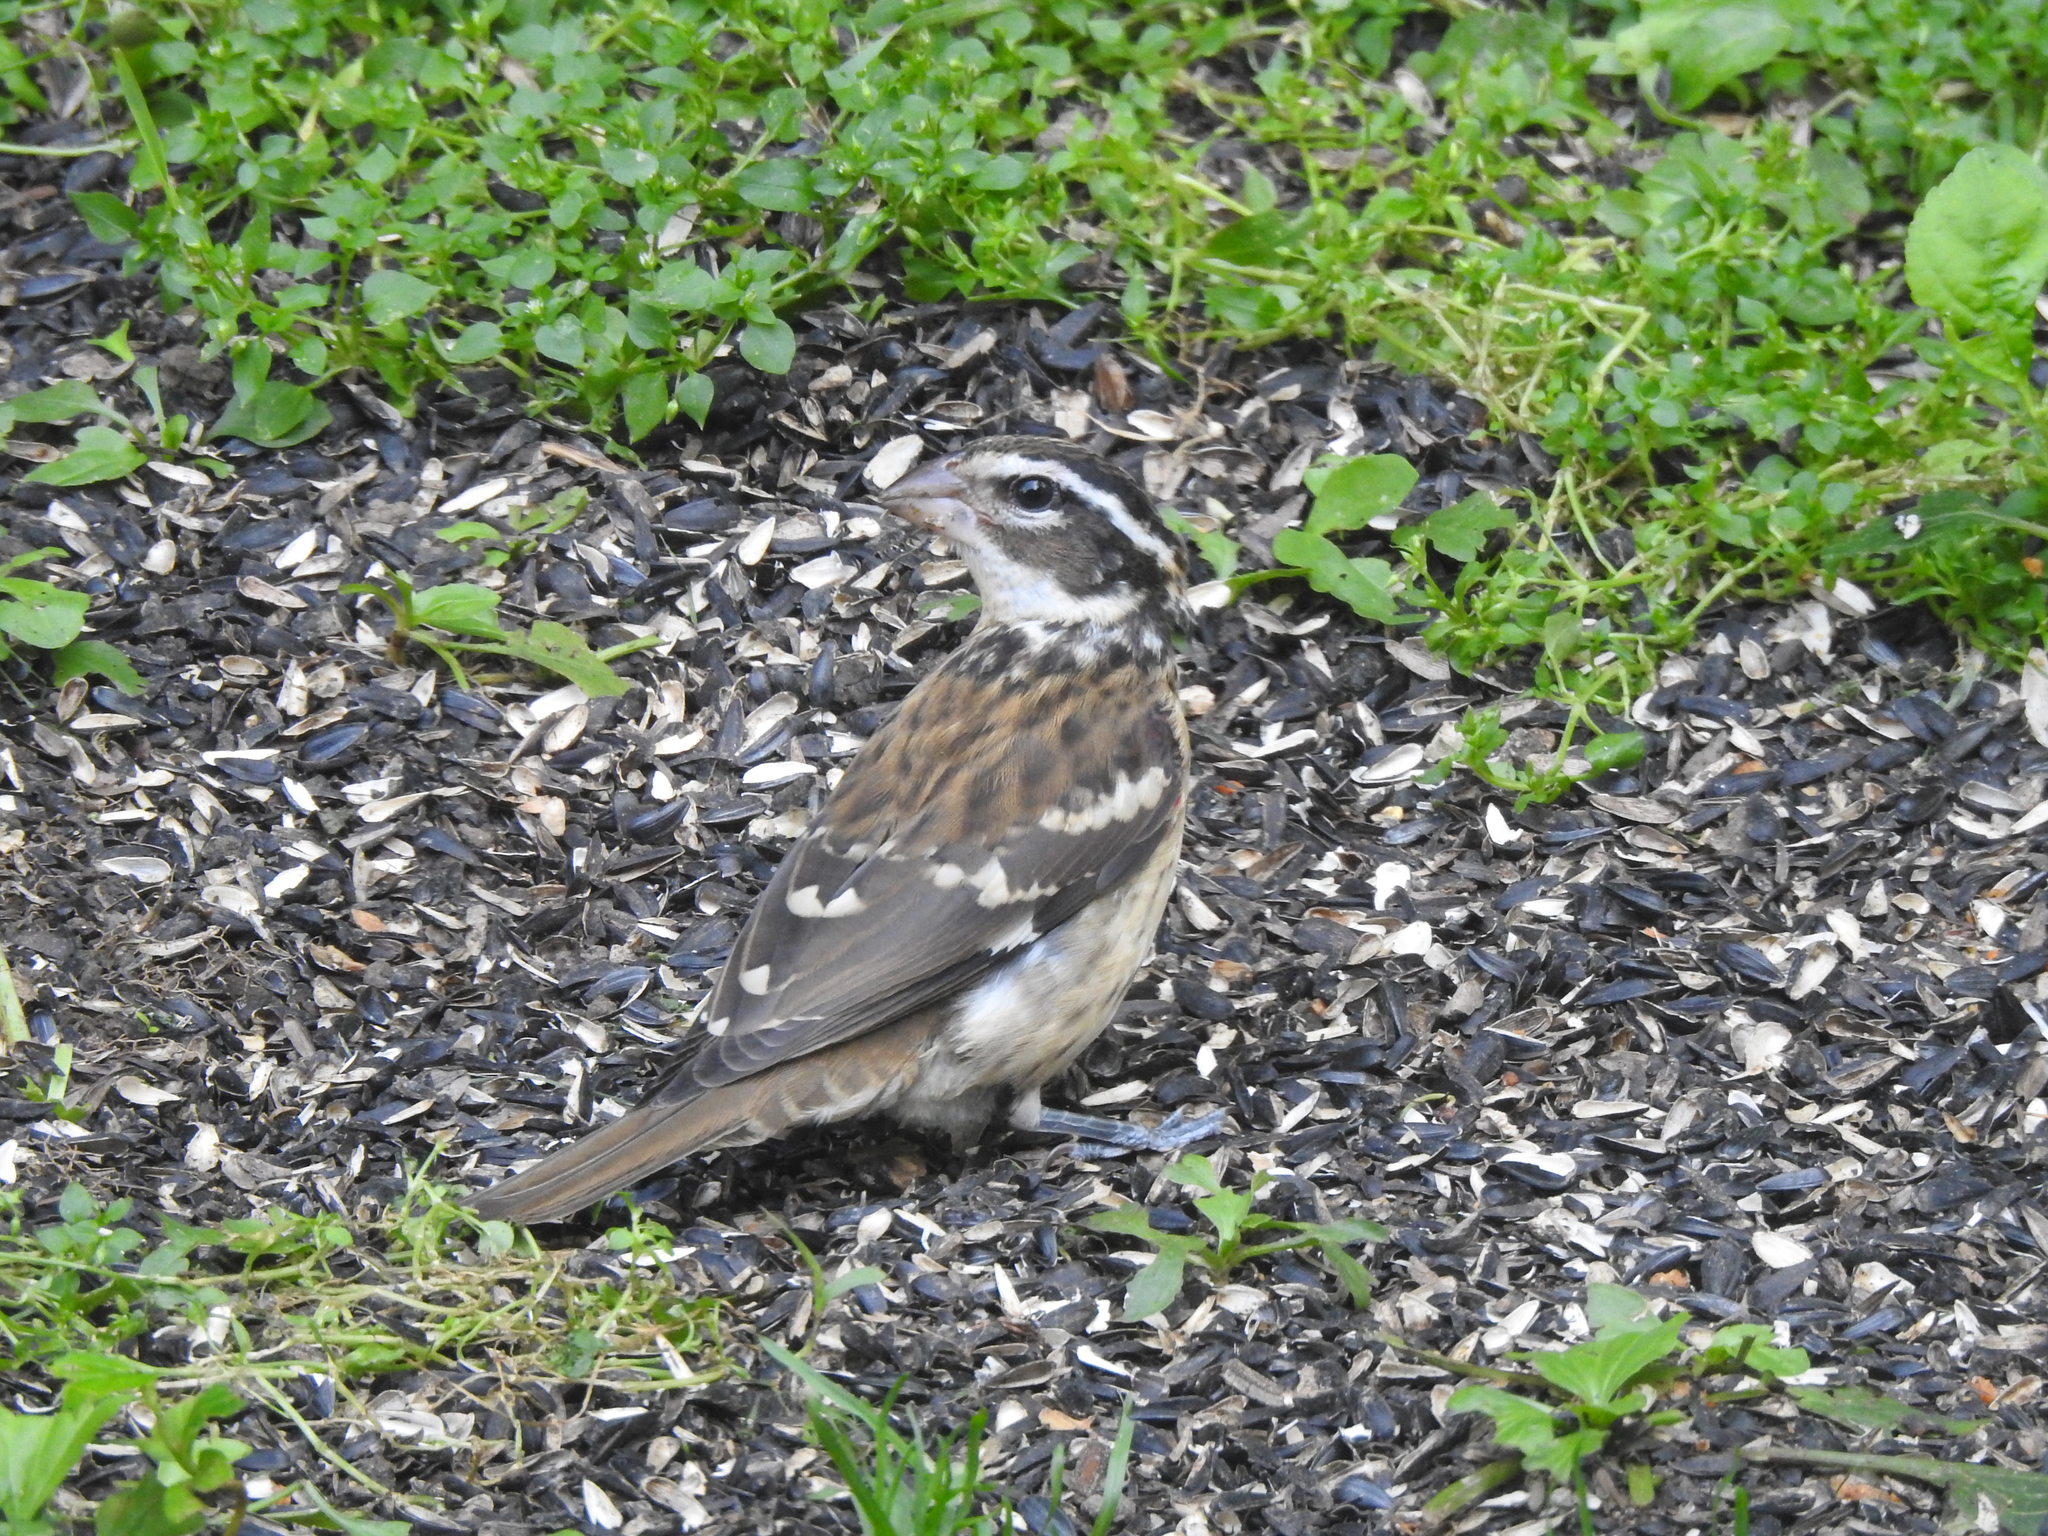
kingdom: Animalia
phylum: Chordata
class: Aves
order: Passeriformes
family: Cardinalidae
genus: Pheucticus
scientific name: Pheucticus ludovicianus
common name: Rose-breasted grosbeak
